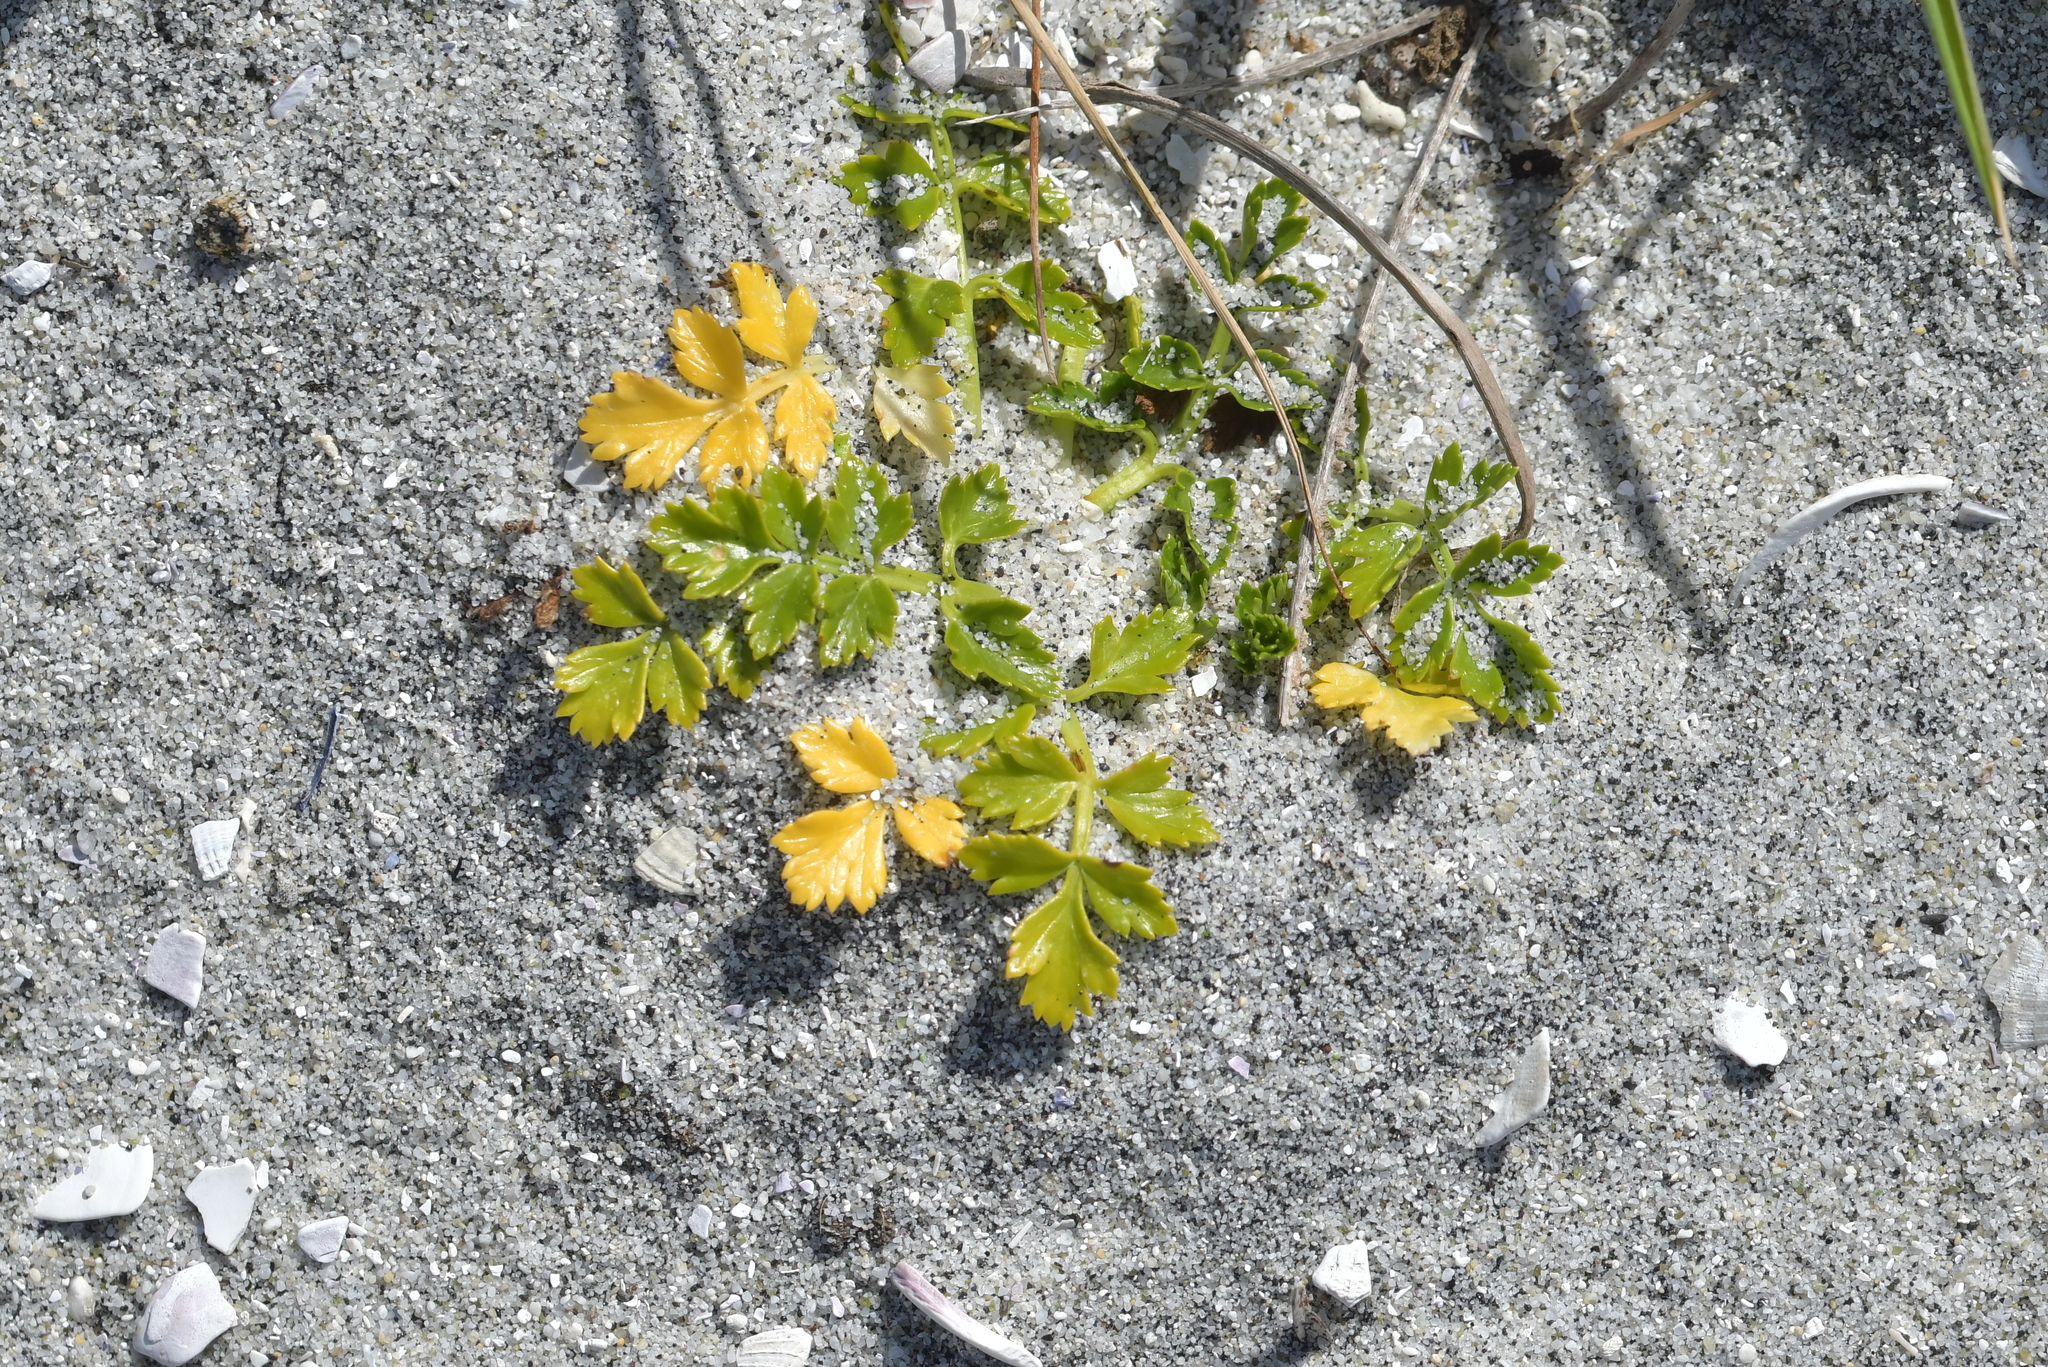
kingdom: Plantae
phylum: Tracheophyta
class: Magnoliopsida
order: Apiales
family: Apiaceae
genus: Apium
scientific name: Apium prostratum
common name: Prostrate marshwort
